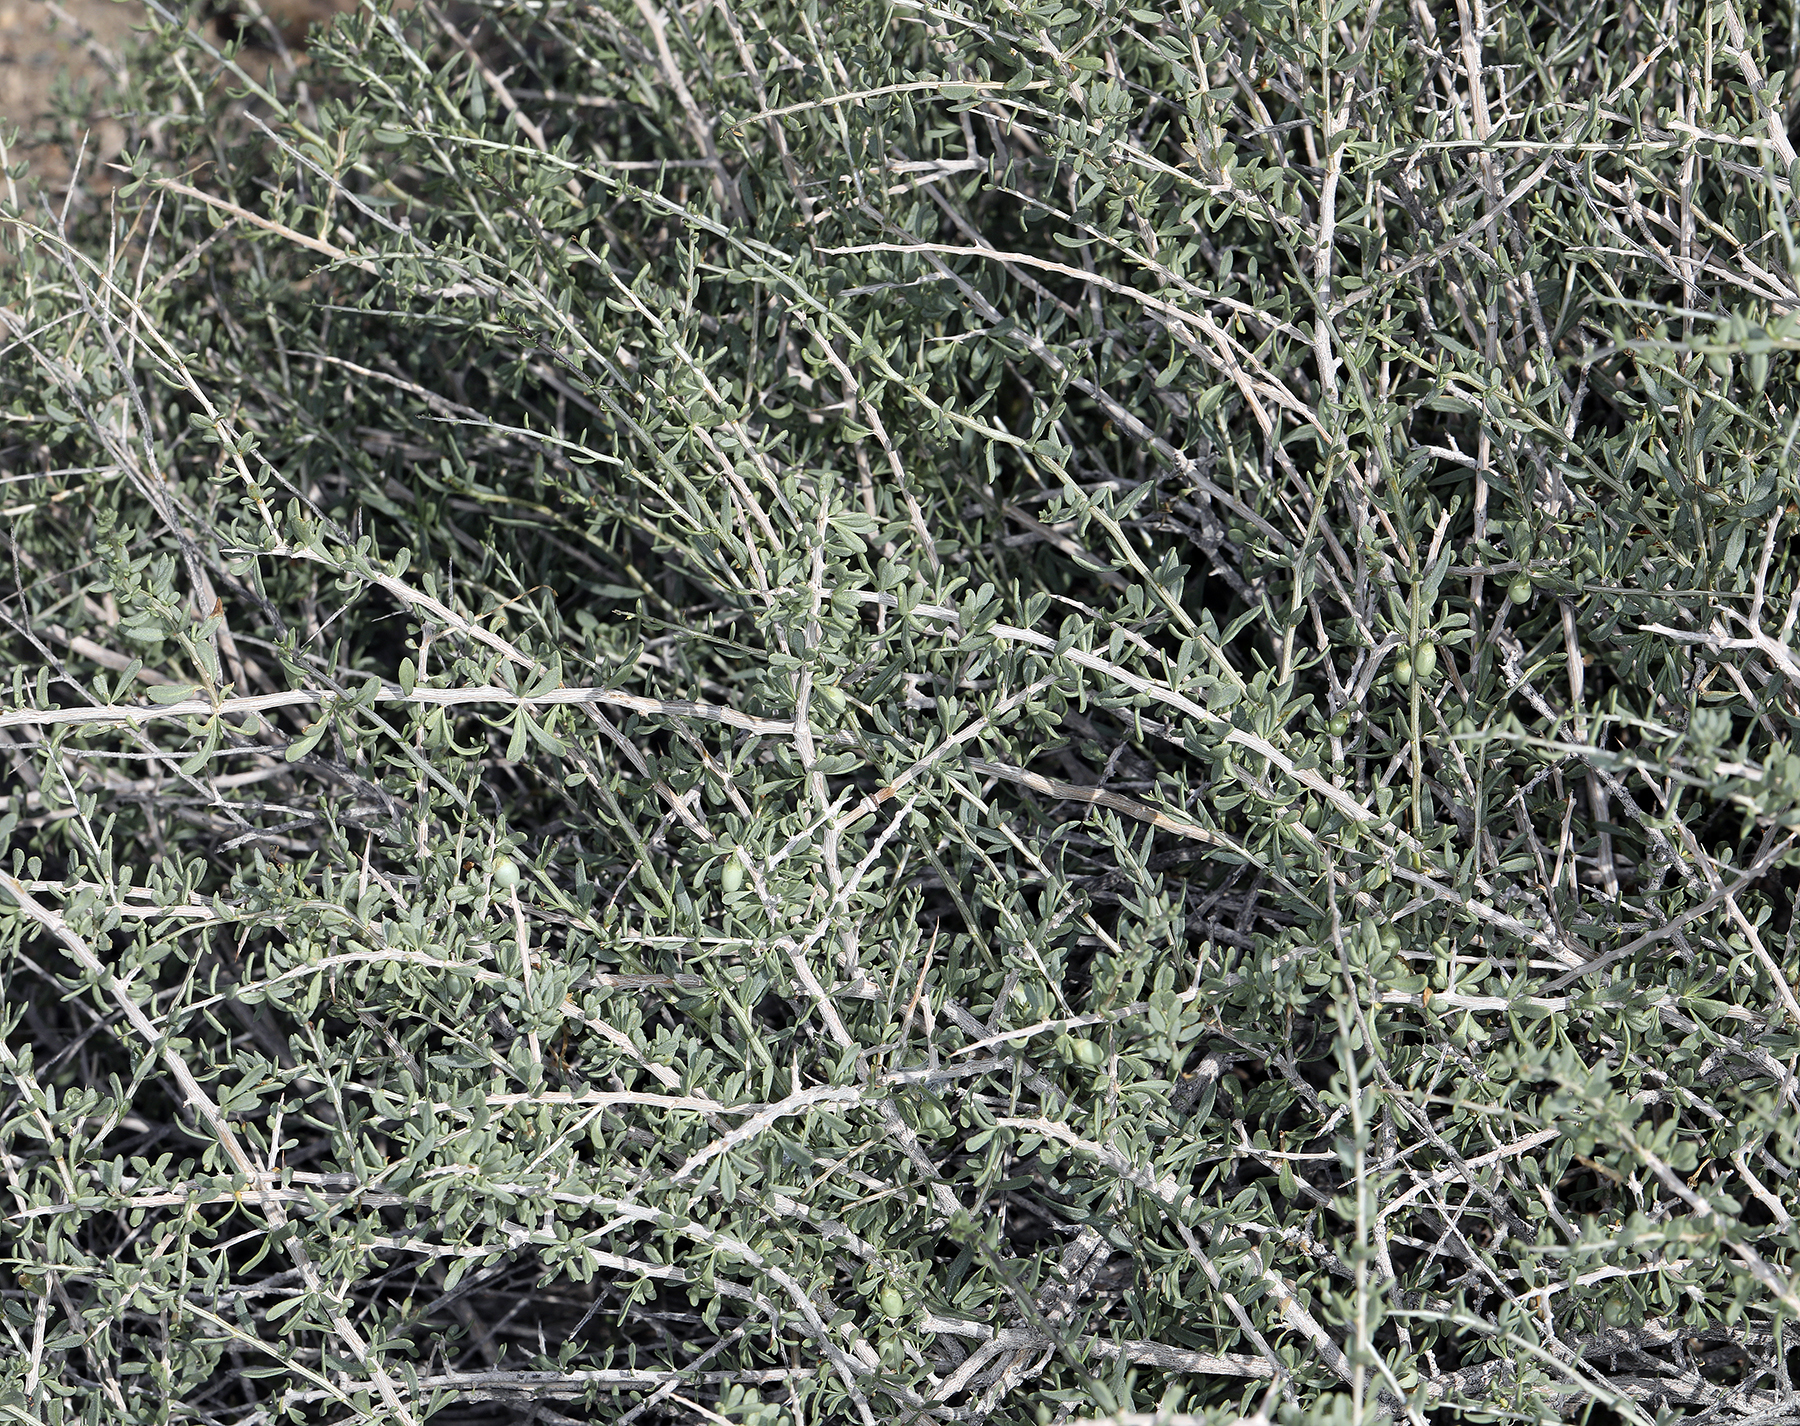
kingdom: Plantae
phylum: Tracheophyta
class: Magnoliopsida
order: Solanales
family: Solanaceae
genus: Lycium
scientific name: Lycium andersonii
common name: Water-jacket
